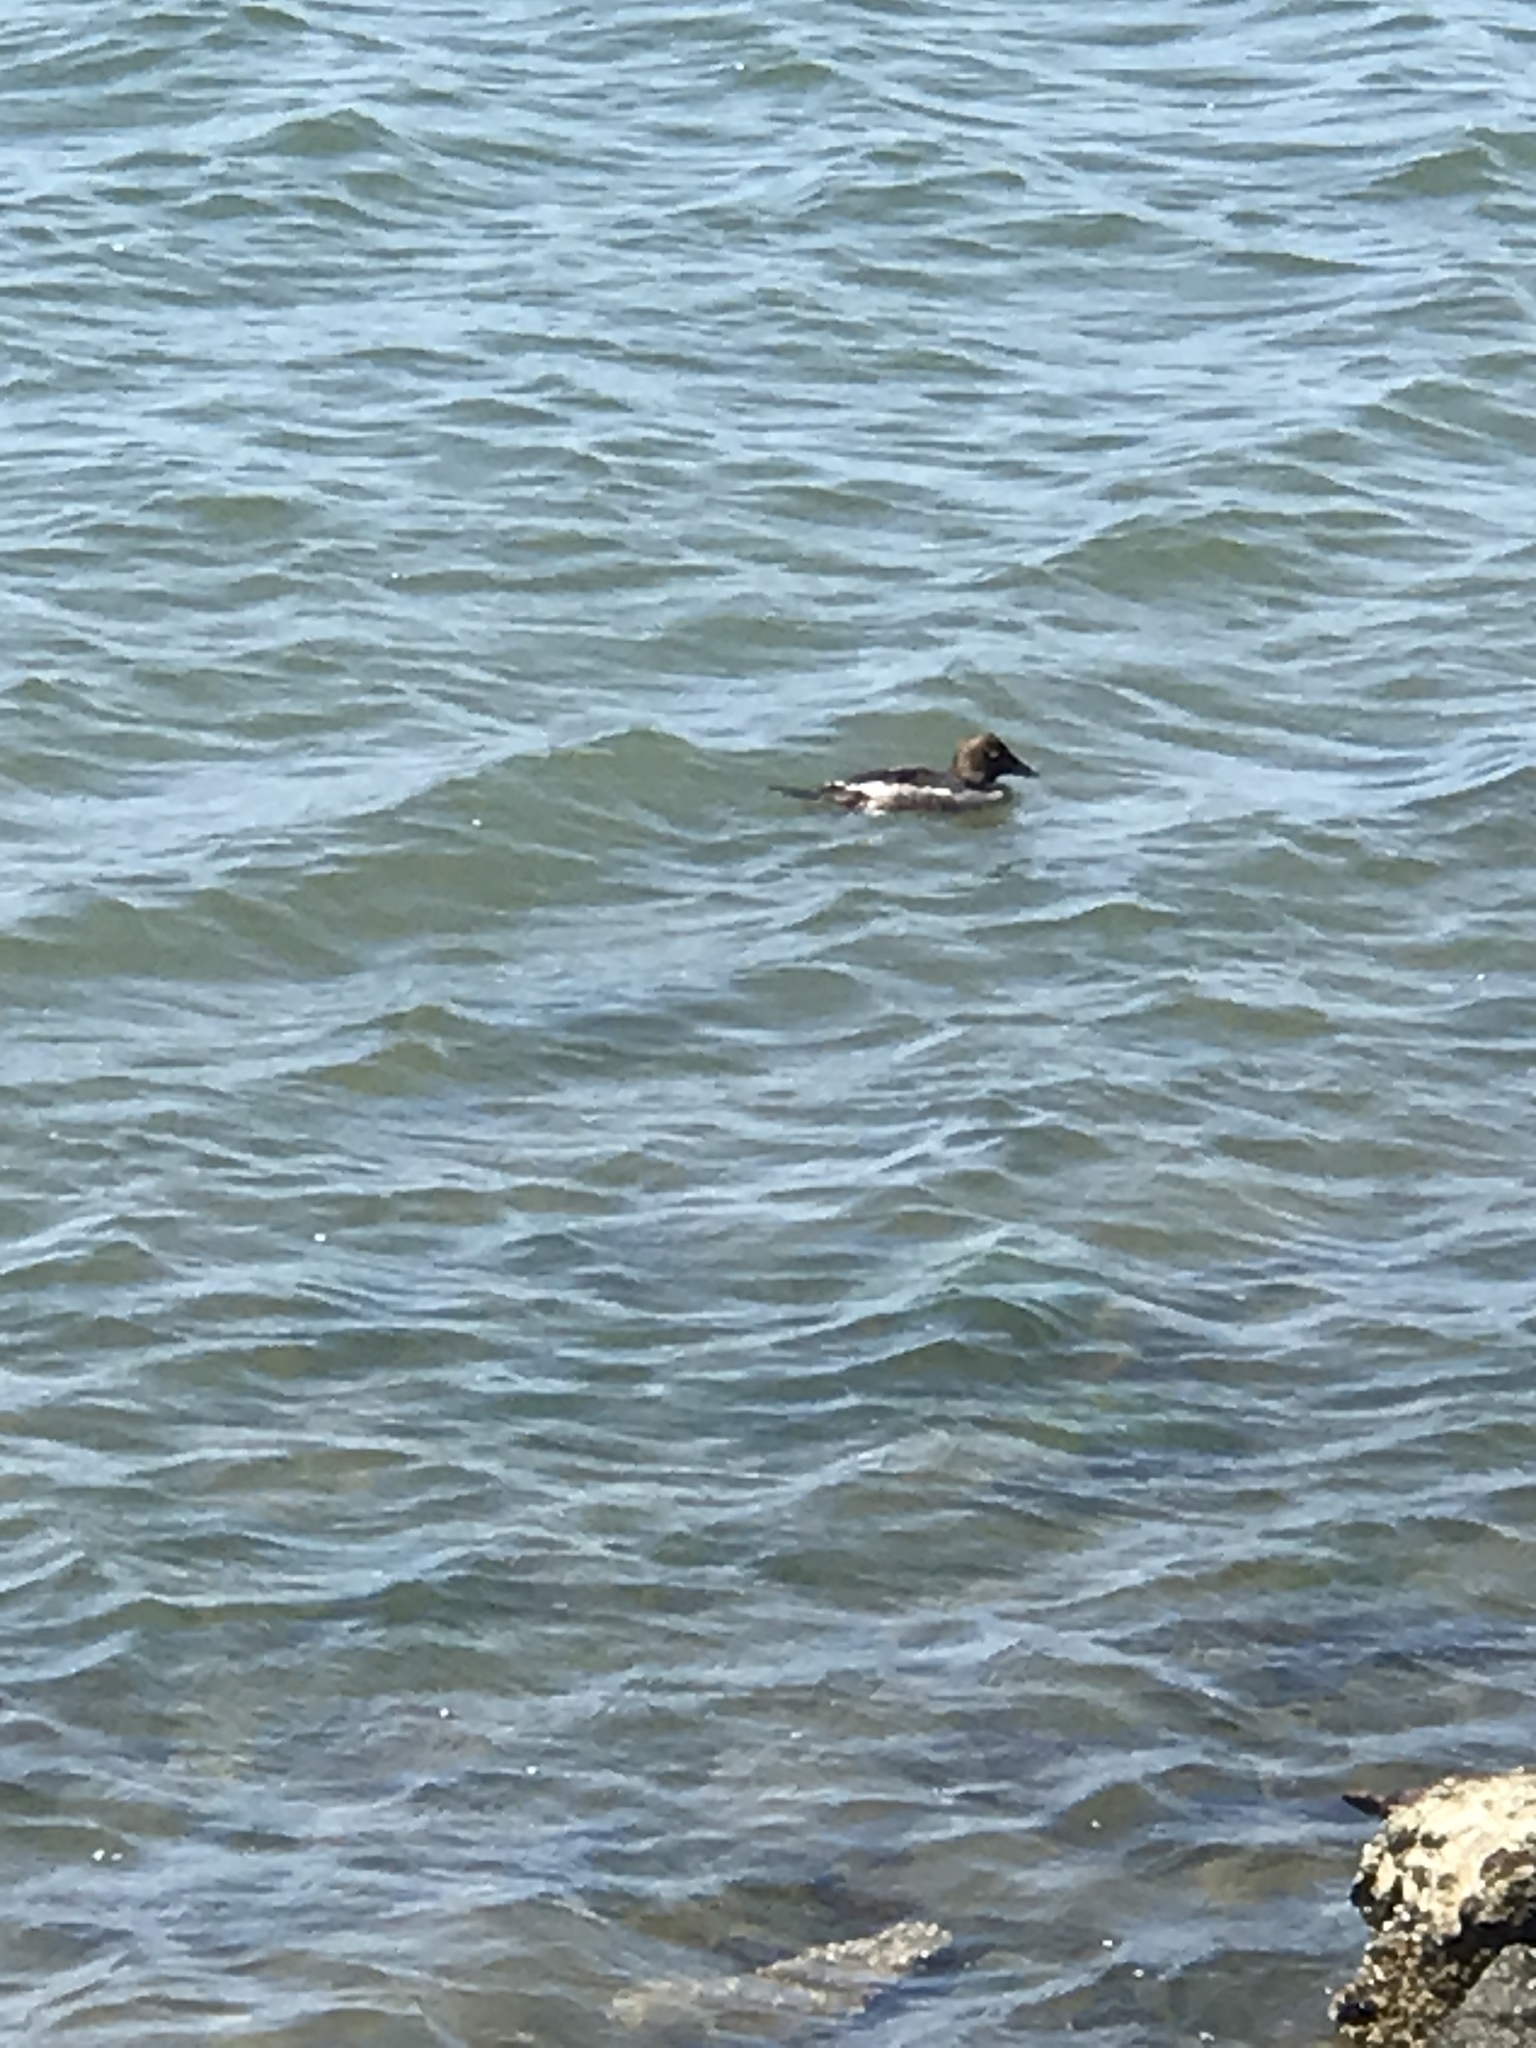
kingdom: Animalia
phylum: Chordata
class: Aves
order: Anseriformes
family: Anatidae
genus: Bucephala
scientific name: Bucephala clangula
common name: Common goldeneye
